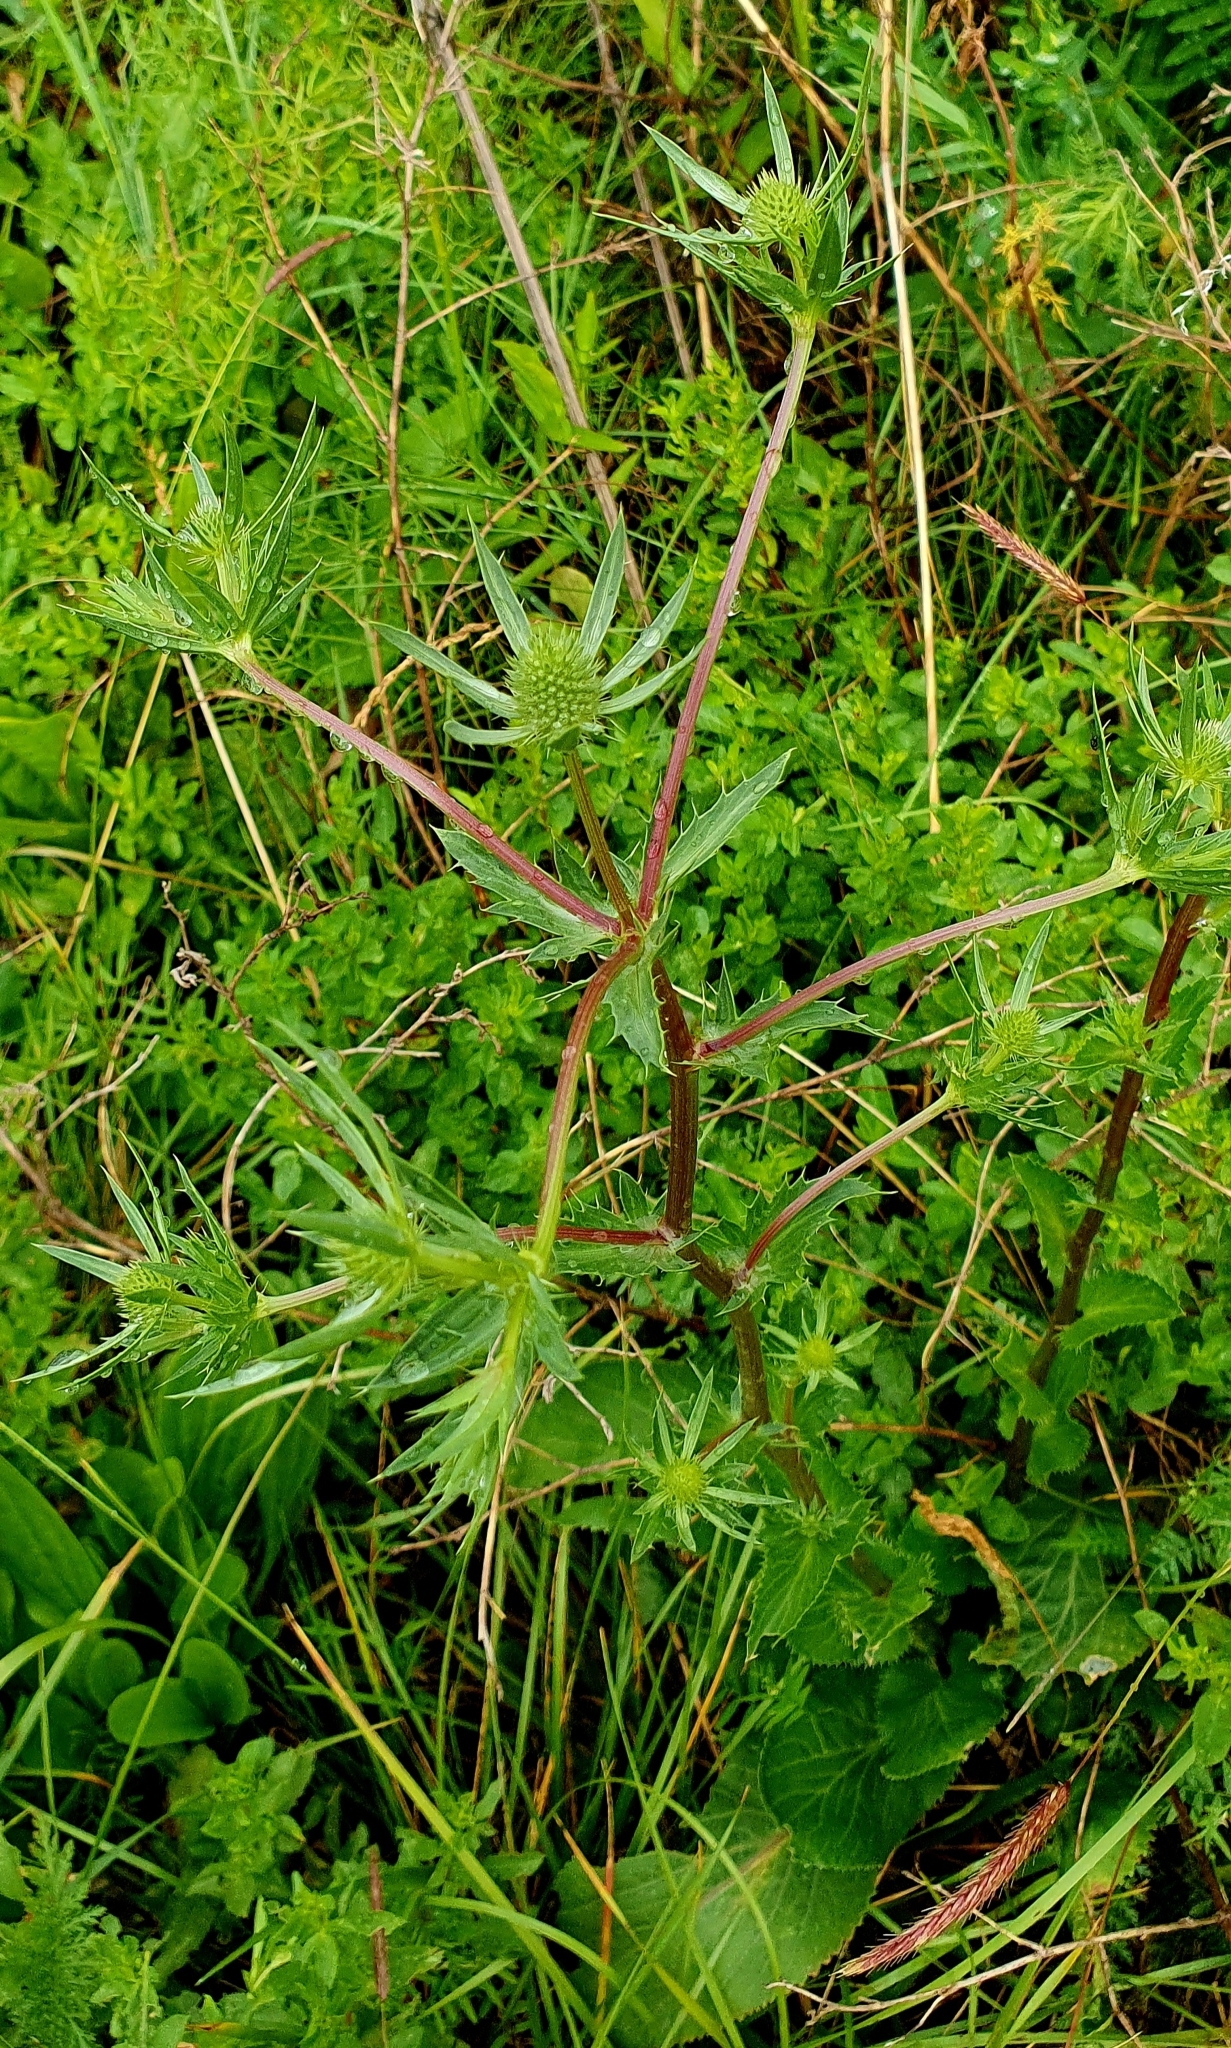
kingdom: Plantae
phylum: Tracheophyta
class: Magnoliopsida
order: Apiales
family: Apiaceae
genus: Eryngium
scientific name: Eryngium planum
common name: Blue eryngo
